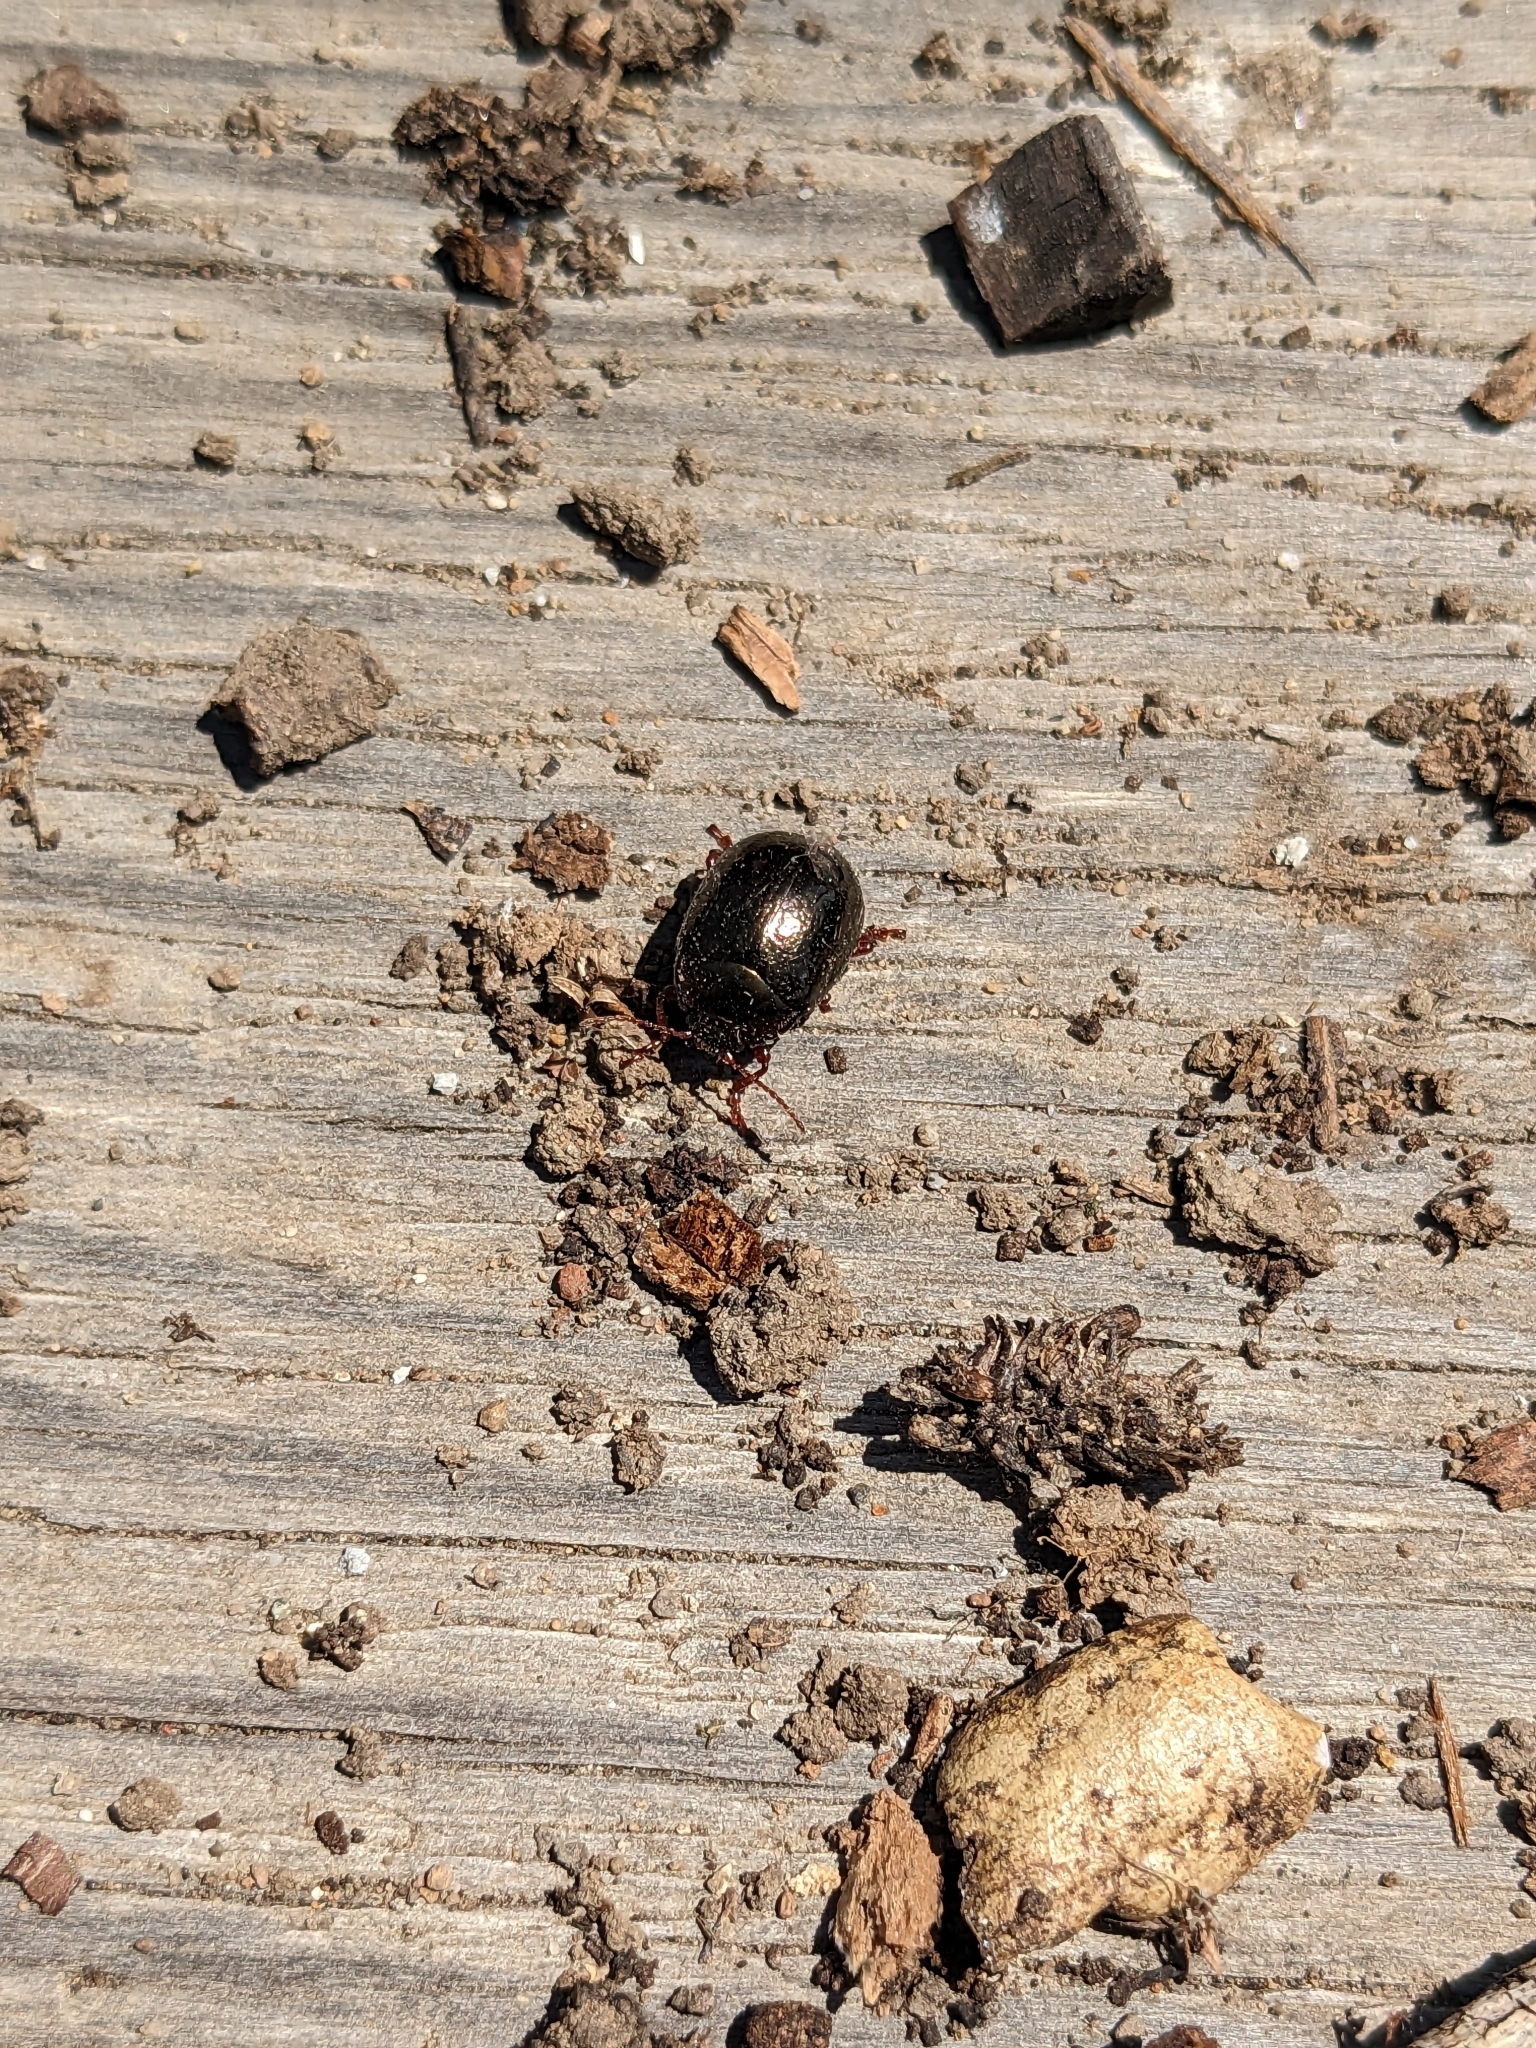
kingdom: Animalia
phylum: Arthropoda
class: Insecta
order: Coleoptera
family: Chrysomelidae
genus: Chrysolina
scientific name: Chrysolina bankii
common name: Leaf beetle
